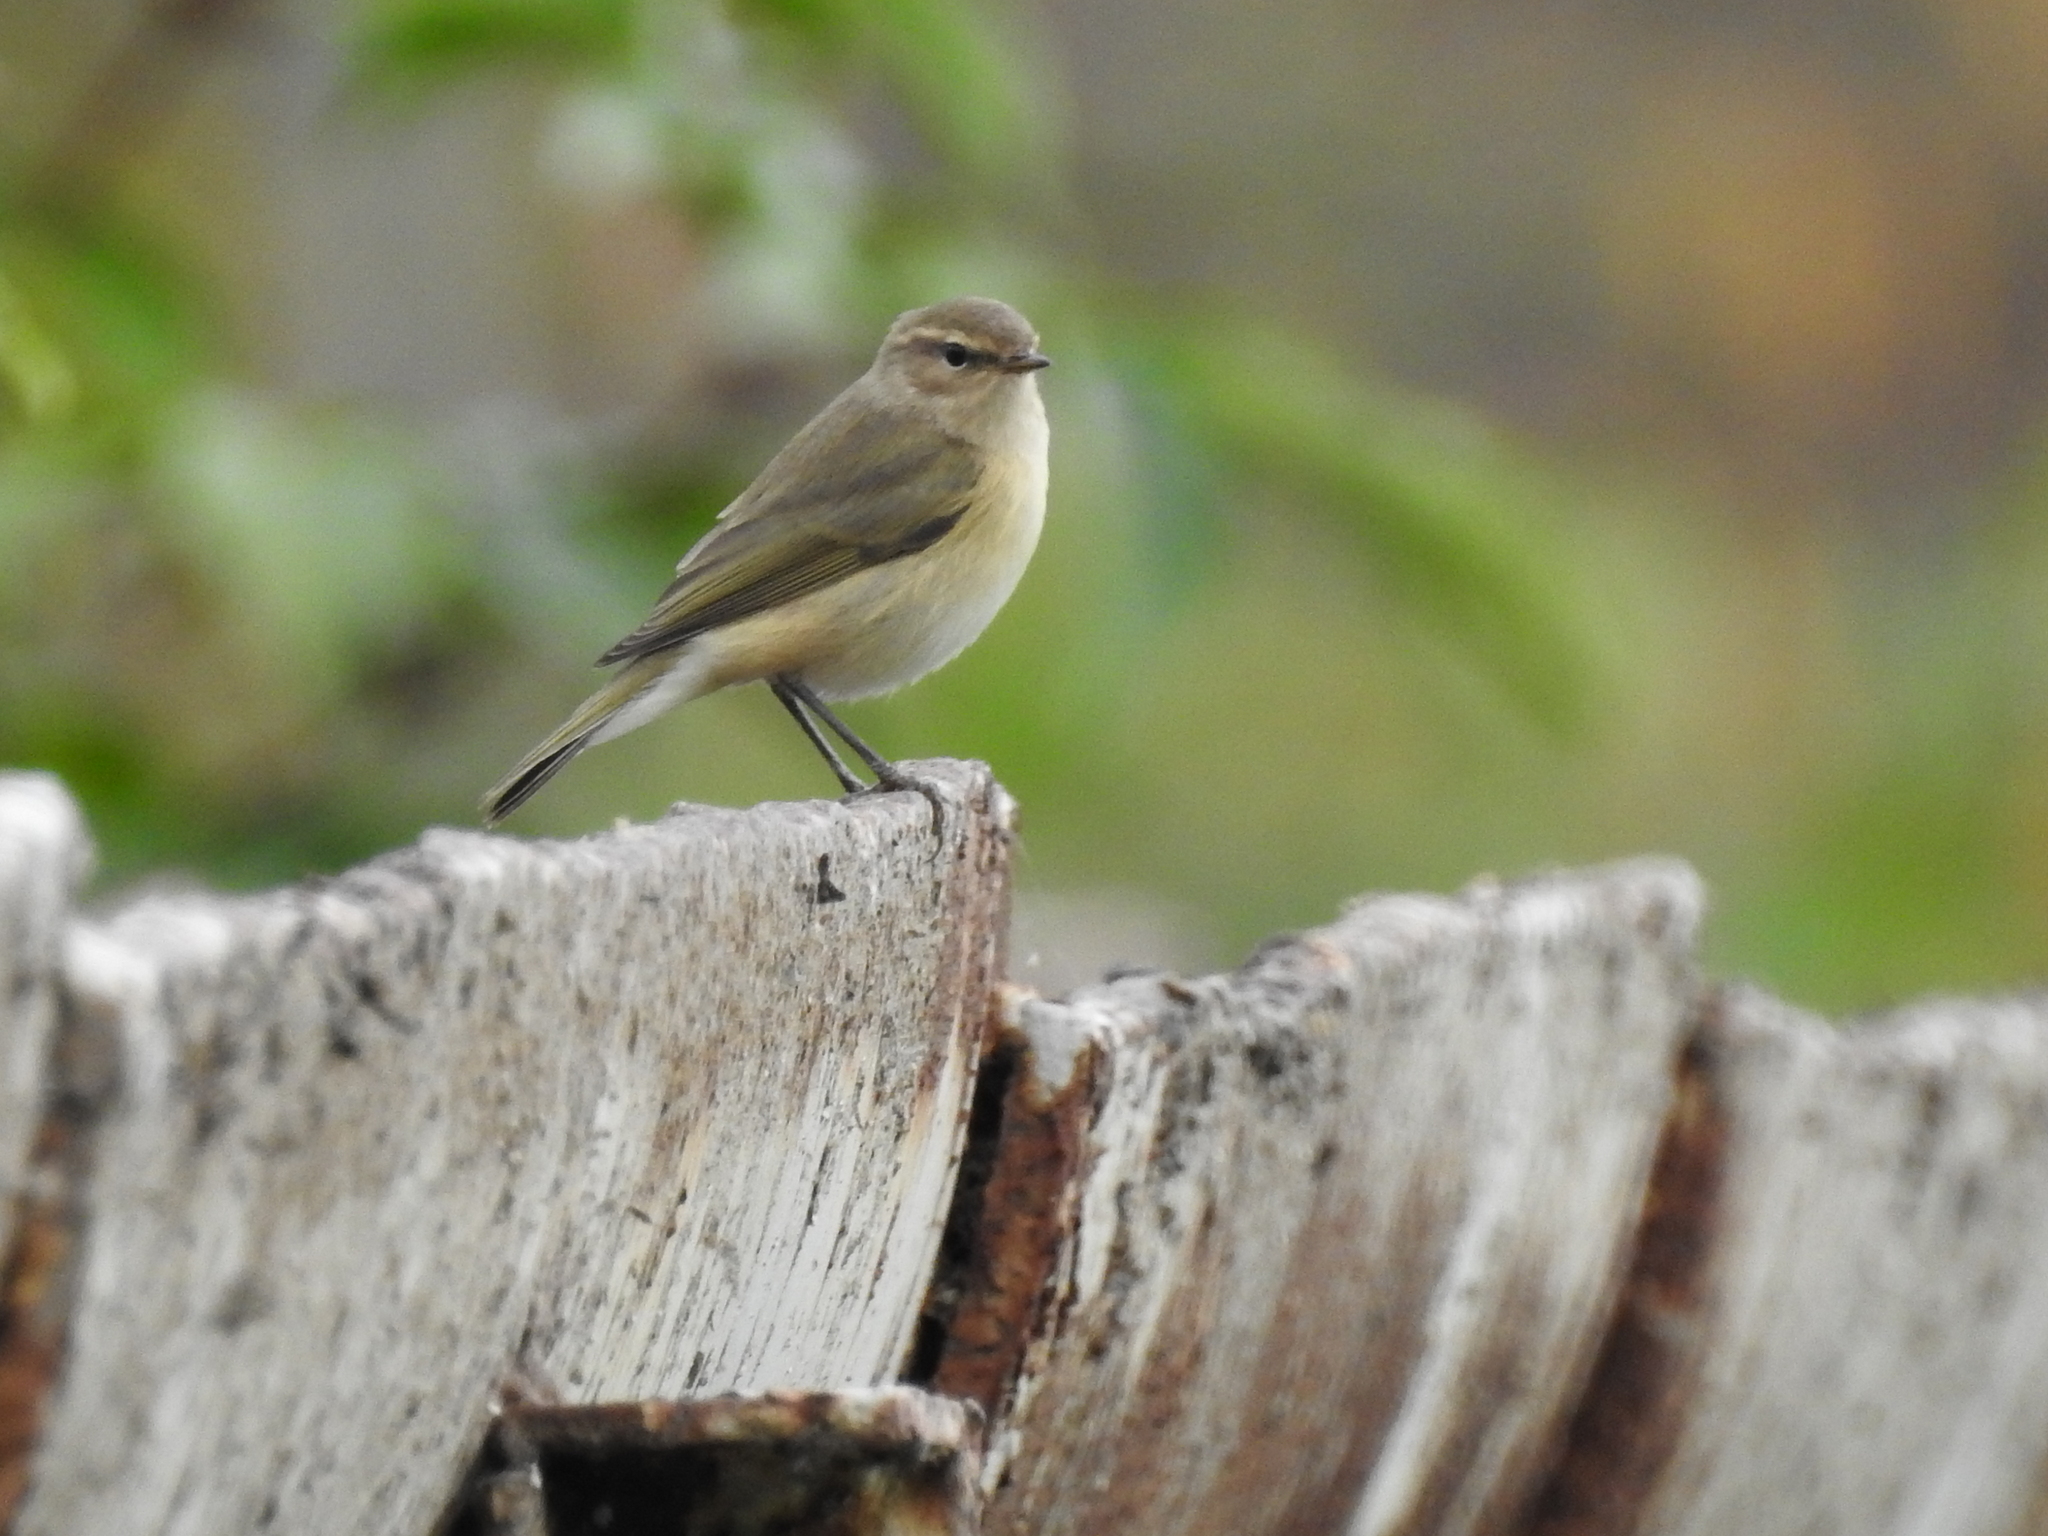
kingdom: Animalia
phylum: Chordata
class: Aves
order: Passeriformes
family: Phylloscopidae
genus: Phylloscopus
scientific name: Phylloscopus collybita
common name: Common chiffchaff
